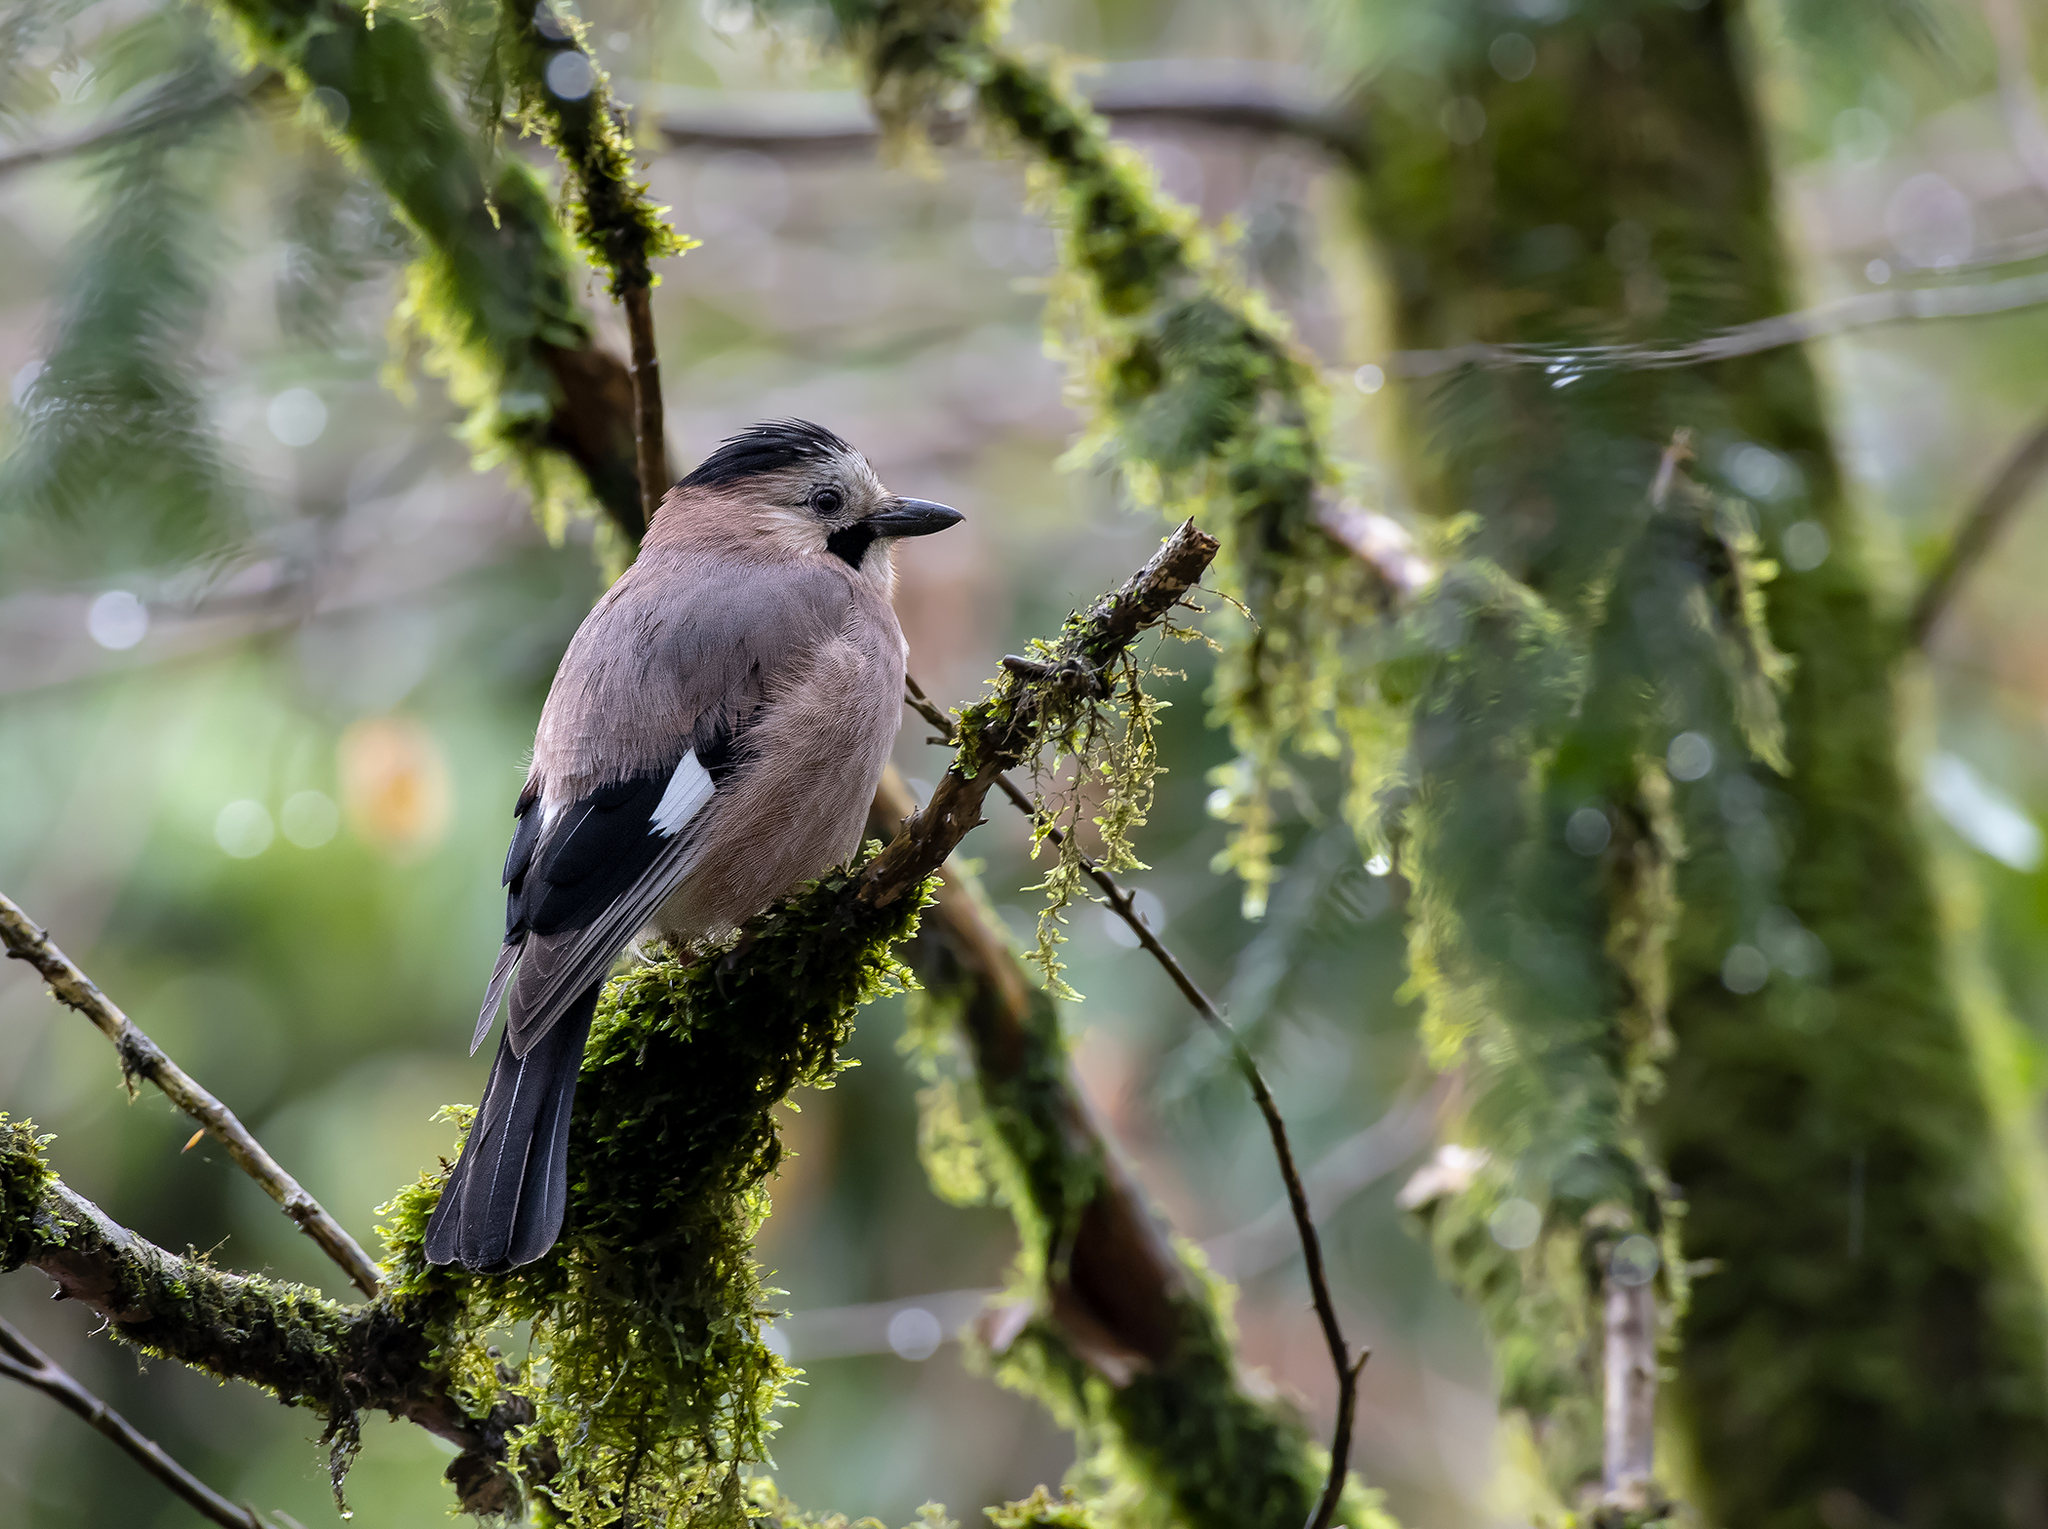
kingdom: Animalia
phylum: Chordata
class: Aves
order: Passeriformes
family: Corvidae
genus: Garrulus
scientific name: Garrulus glandarius
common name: Eurasian jay
